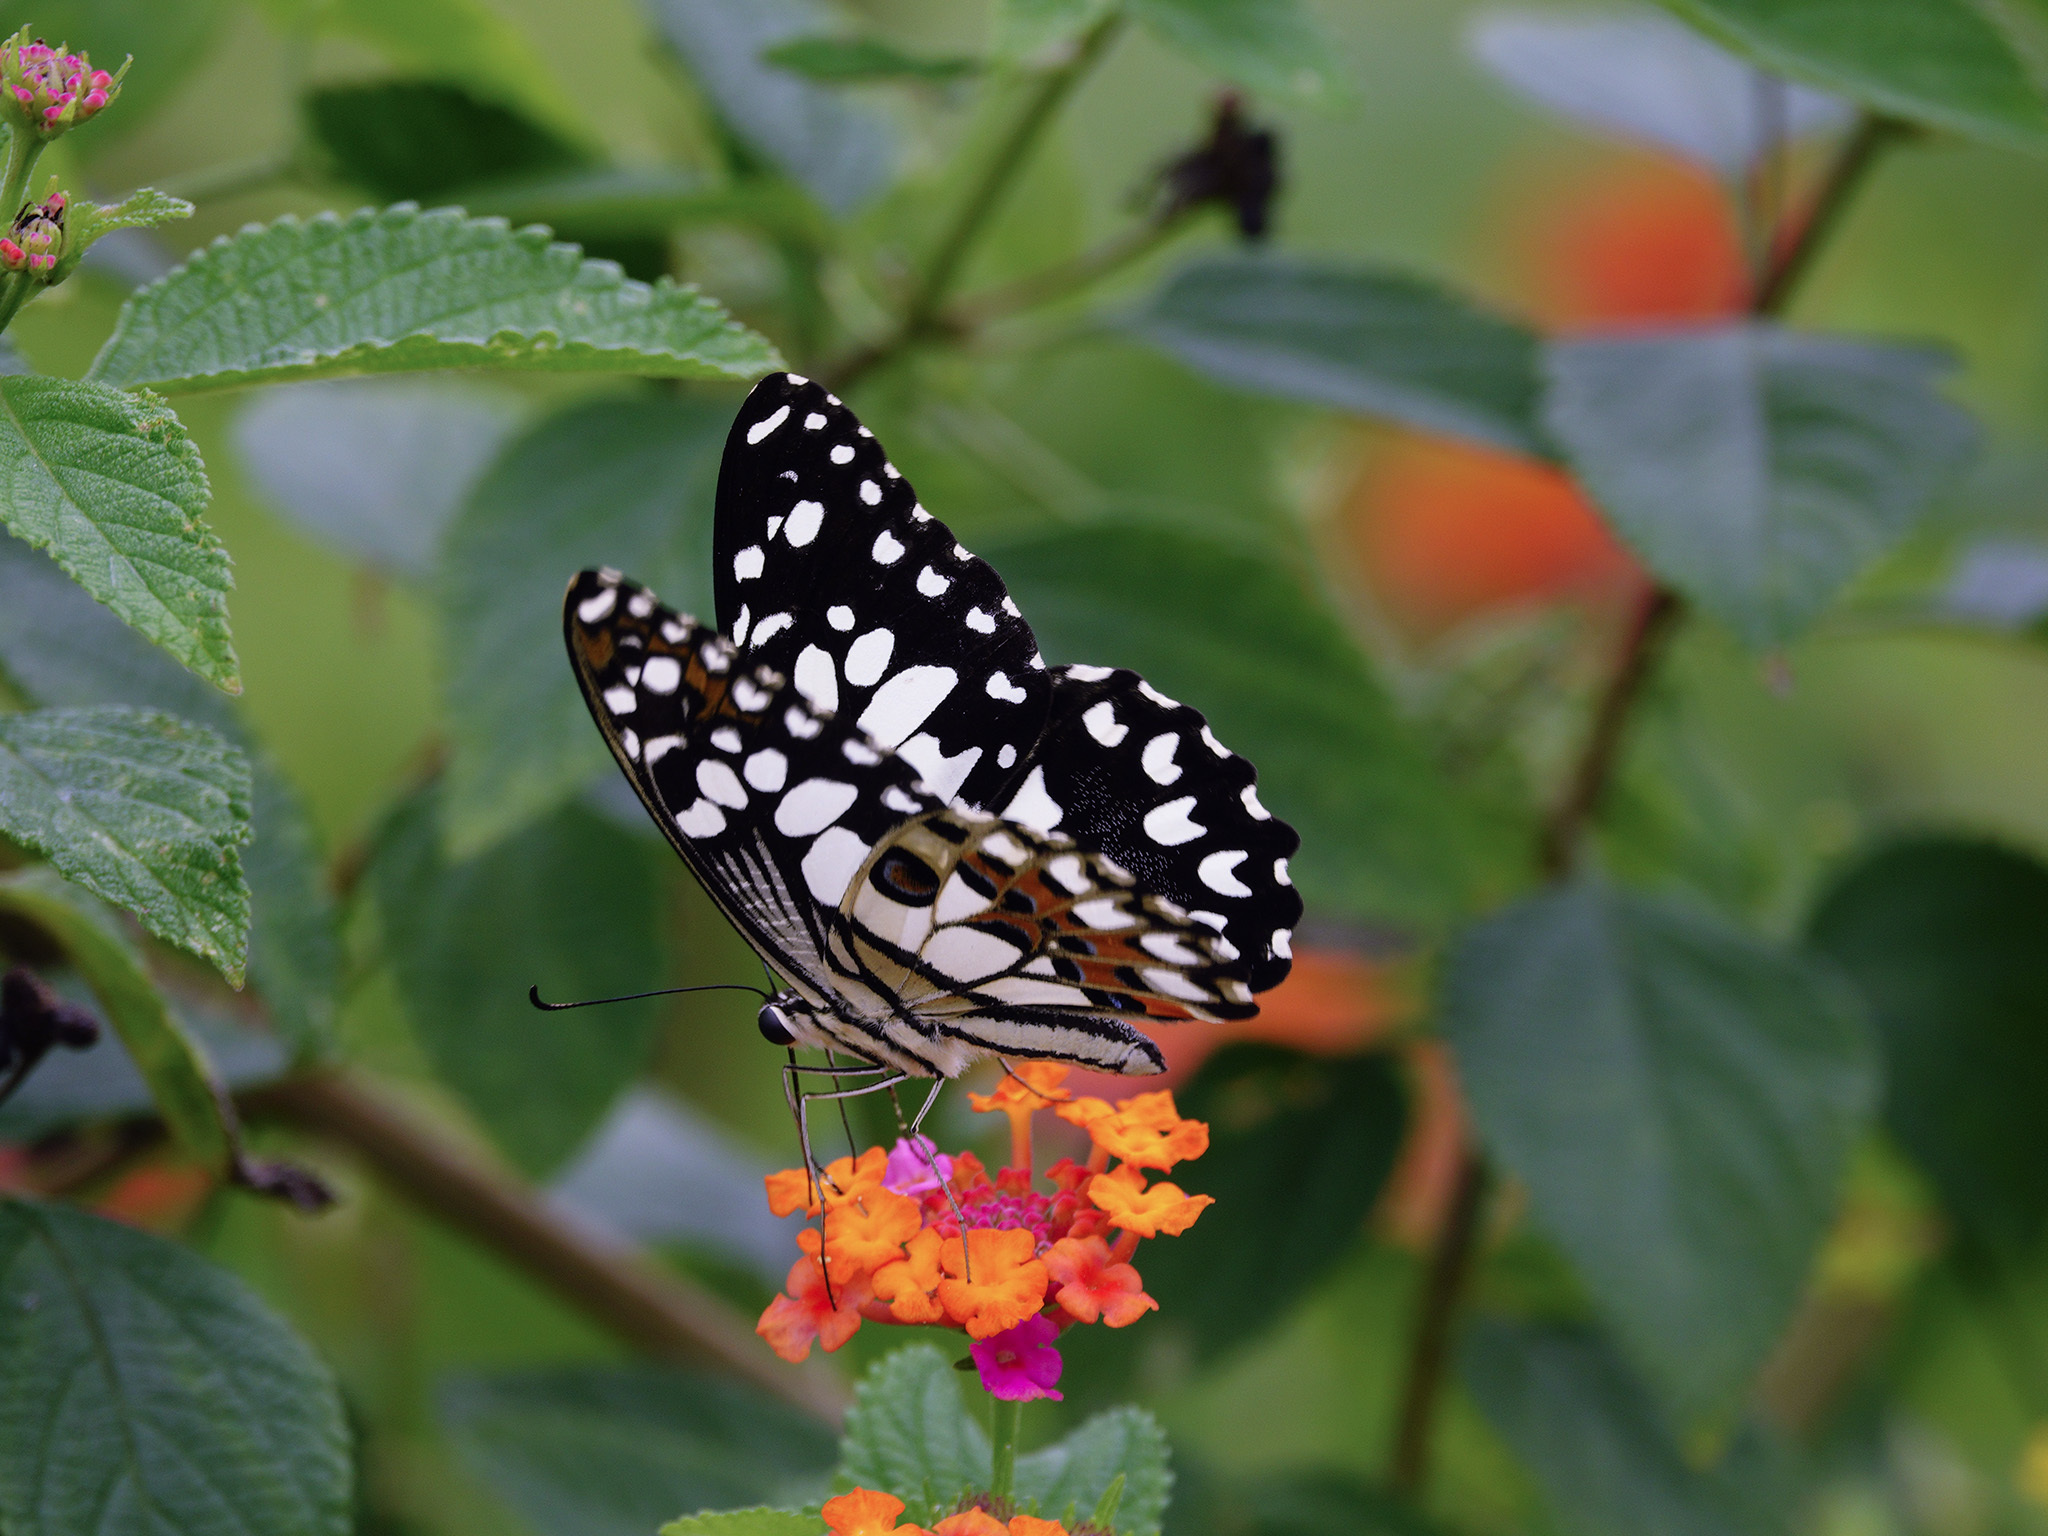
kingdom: Animalia
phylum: Arthropoda
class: Insecta
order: Lepidoptera
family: Papilionidae
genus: Papilio
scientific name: Papilio demoleus
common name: Lime butterfly
